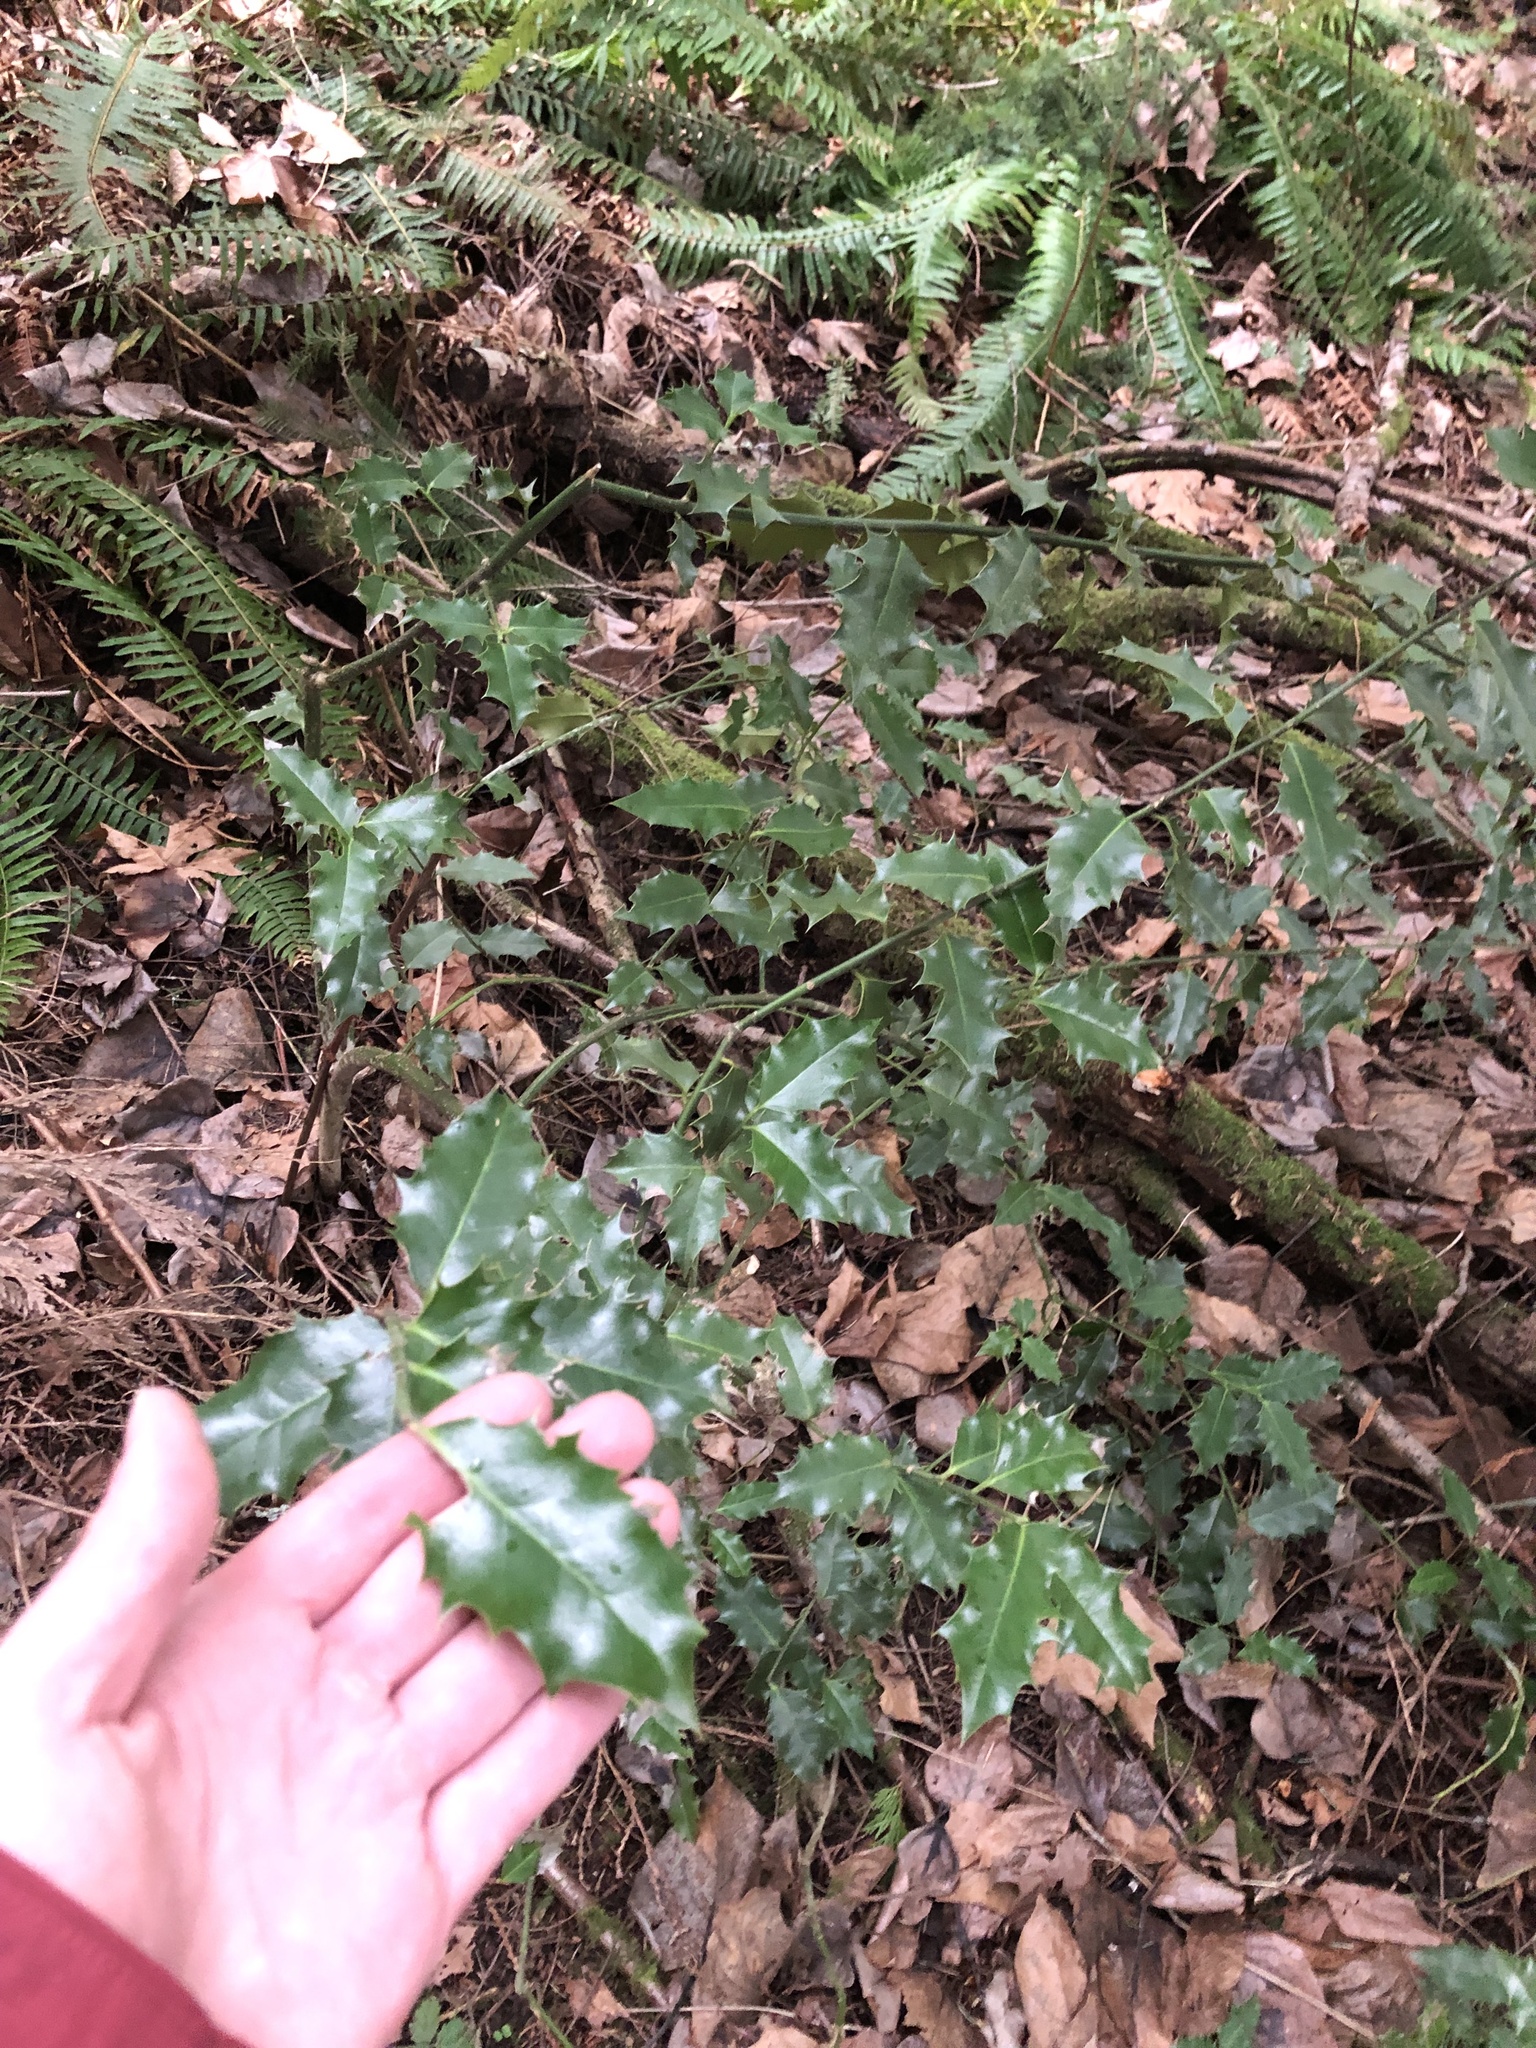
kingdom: Plantae
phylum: Tracheophyta
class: Magnoliopsida
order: Aquifoliales
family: Aquifoliaceae
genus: Ilex
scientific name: Ilex aquifolium
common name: English holly
